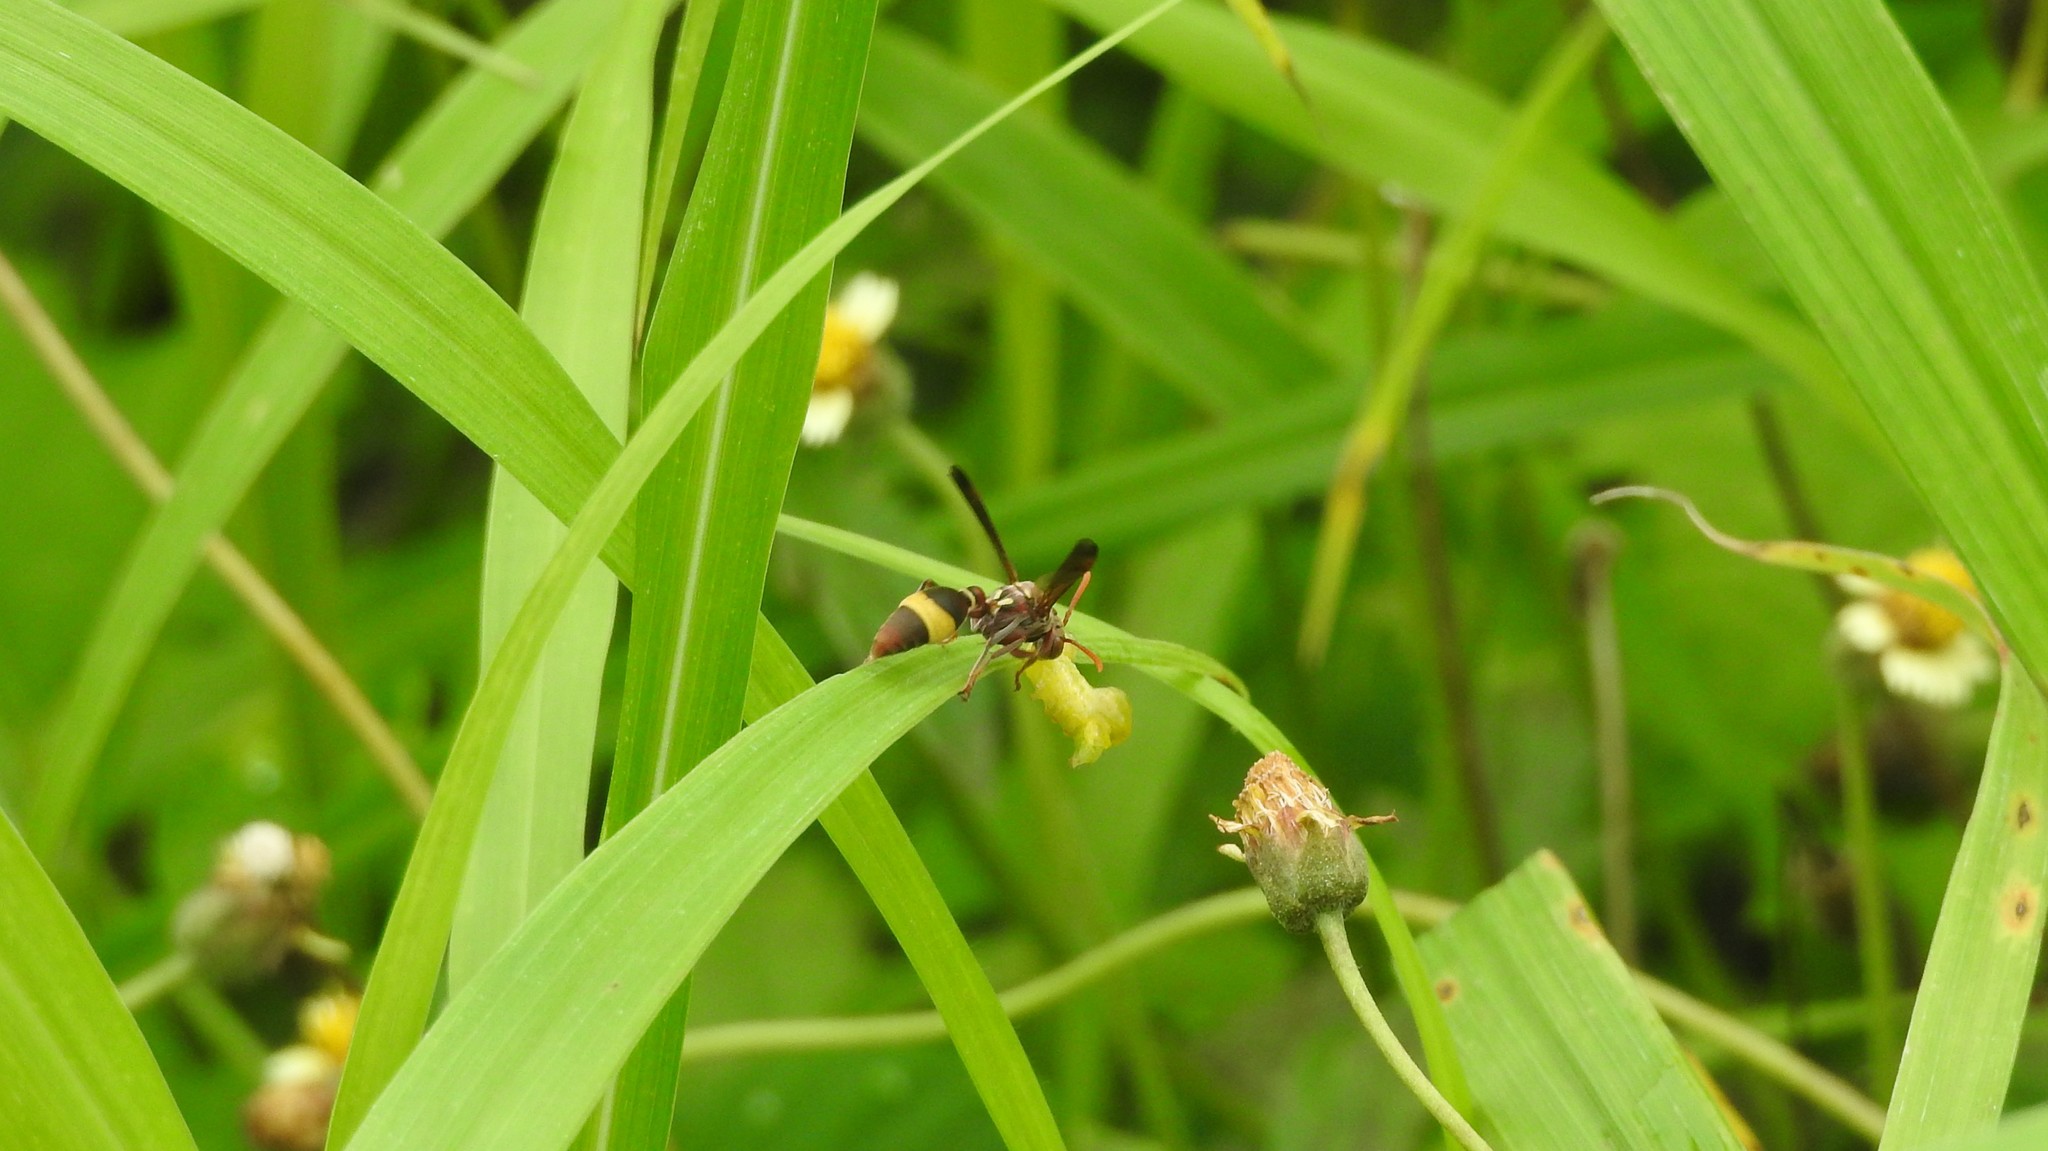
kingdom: Animalia
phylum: Arthropoda
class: Insecta
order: Hymenoptera
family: Vespidae
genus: Ropalidia
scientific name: Ropalidia
